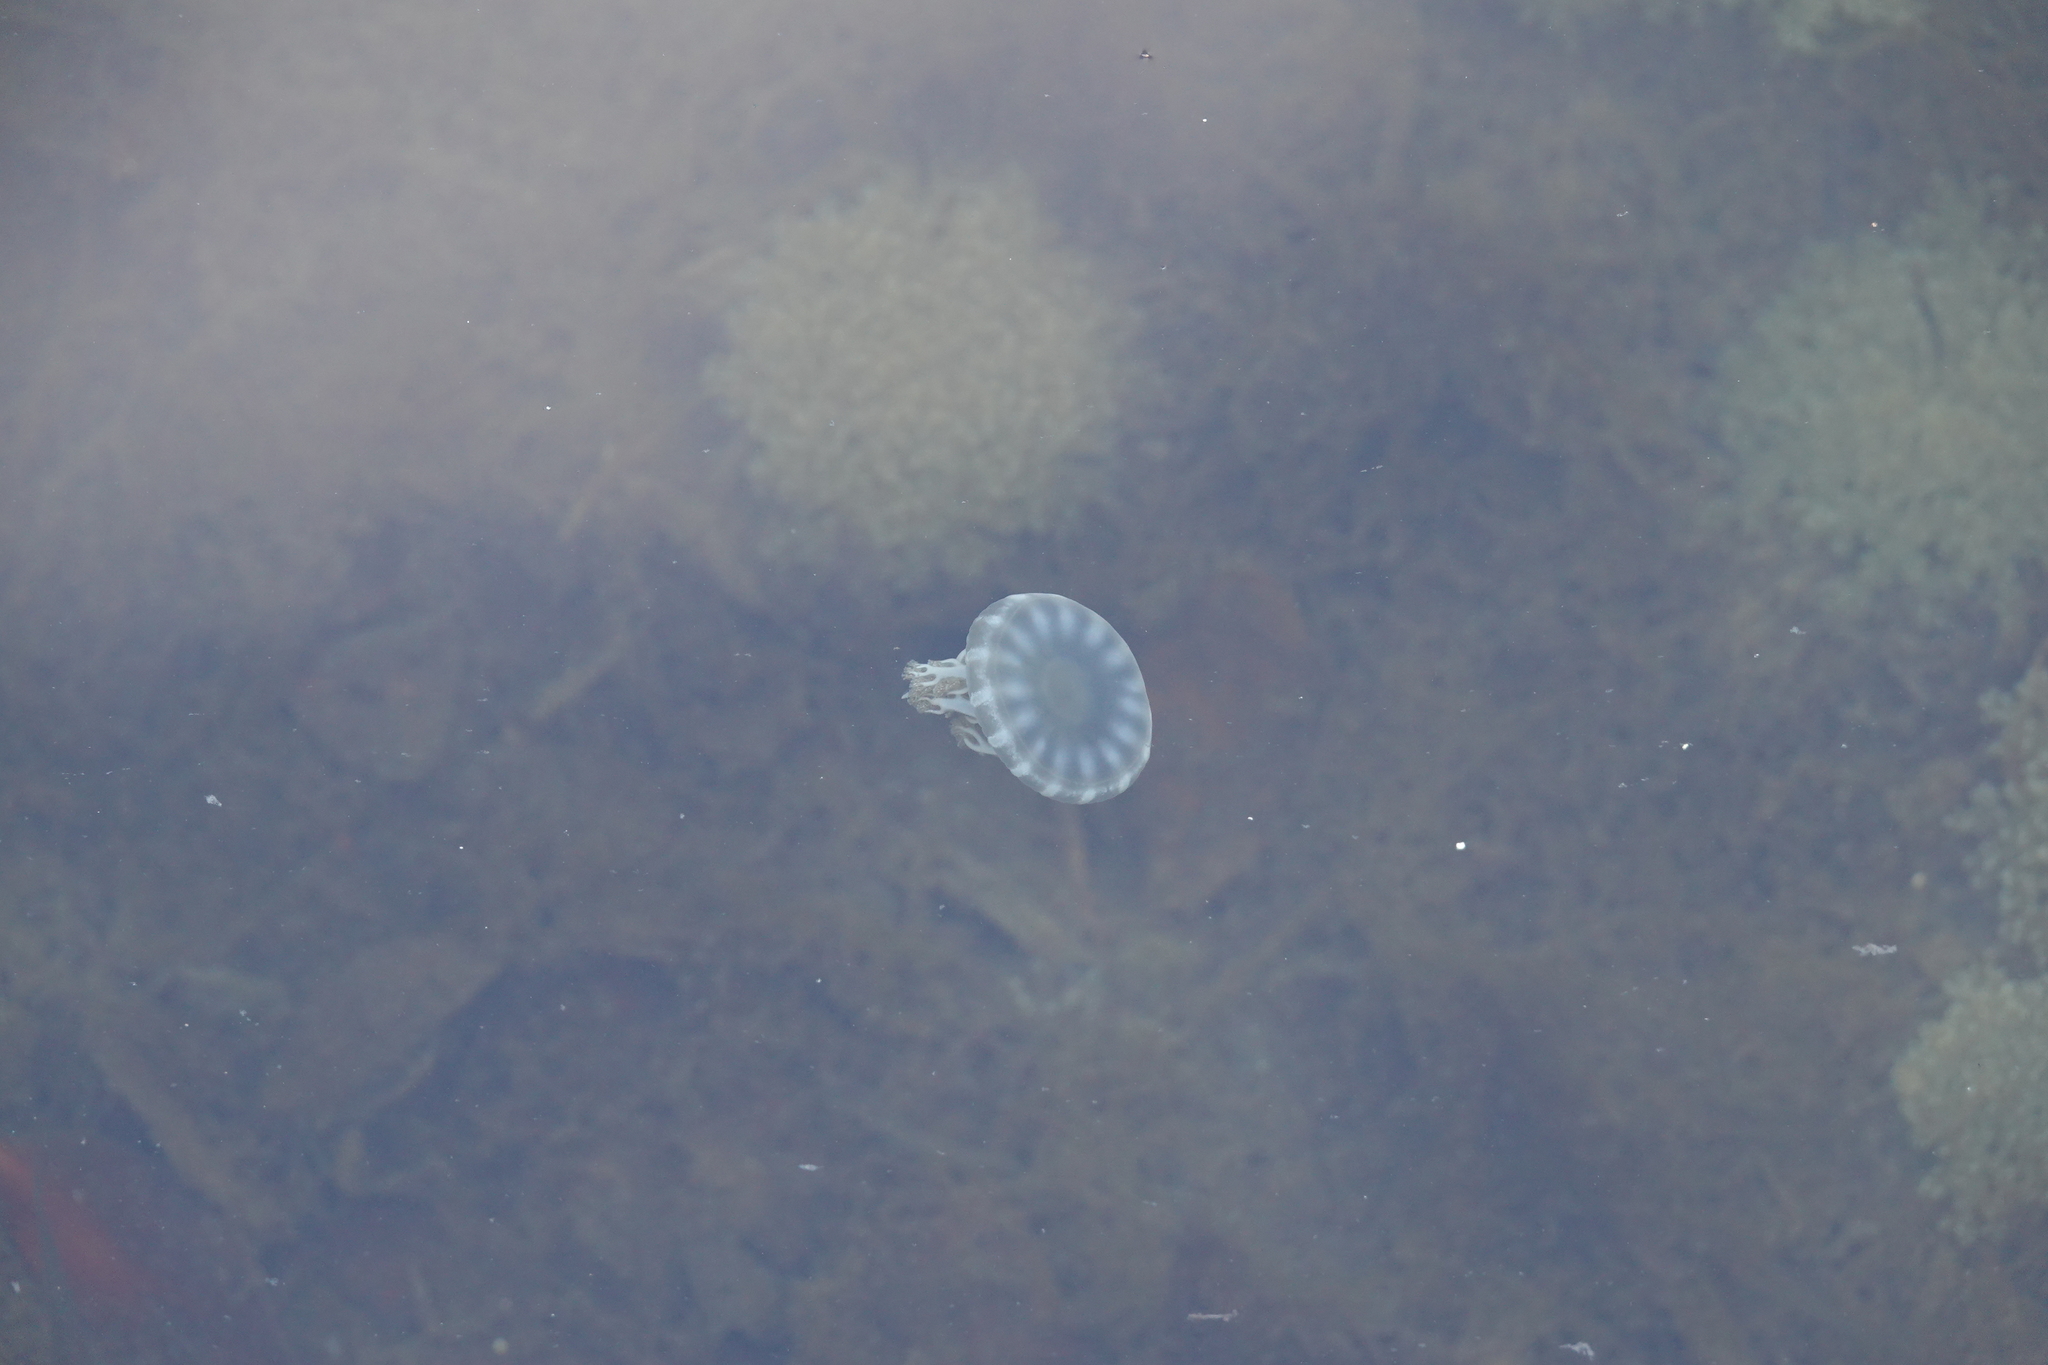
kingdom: Animalia
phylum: Cnidaria
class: Scyphozoa
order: Rhizostomeae
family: Cassiopeidae
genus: Cassiopea
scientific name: Cassiopea andromeda
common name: Upside-down jellyfish
